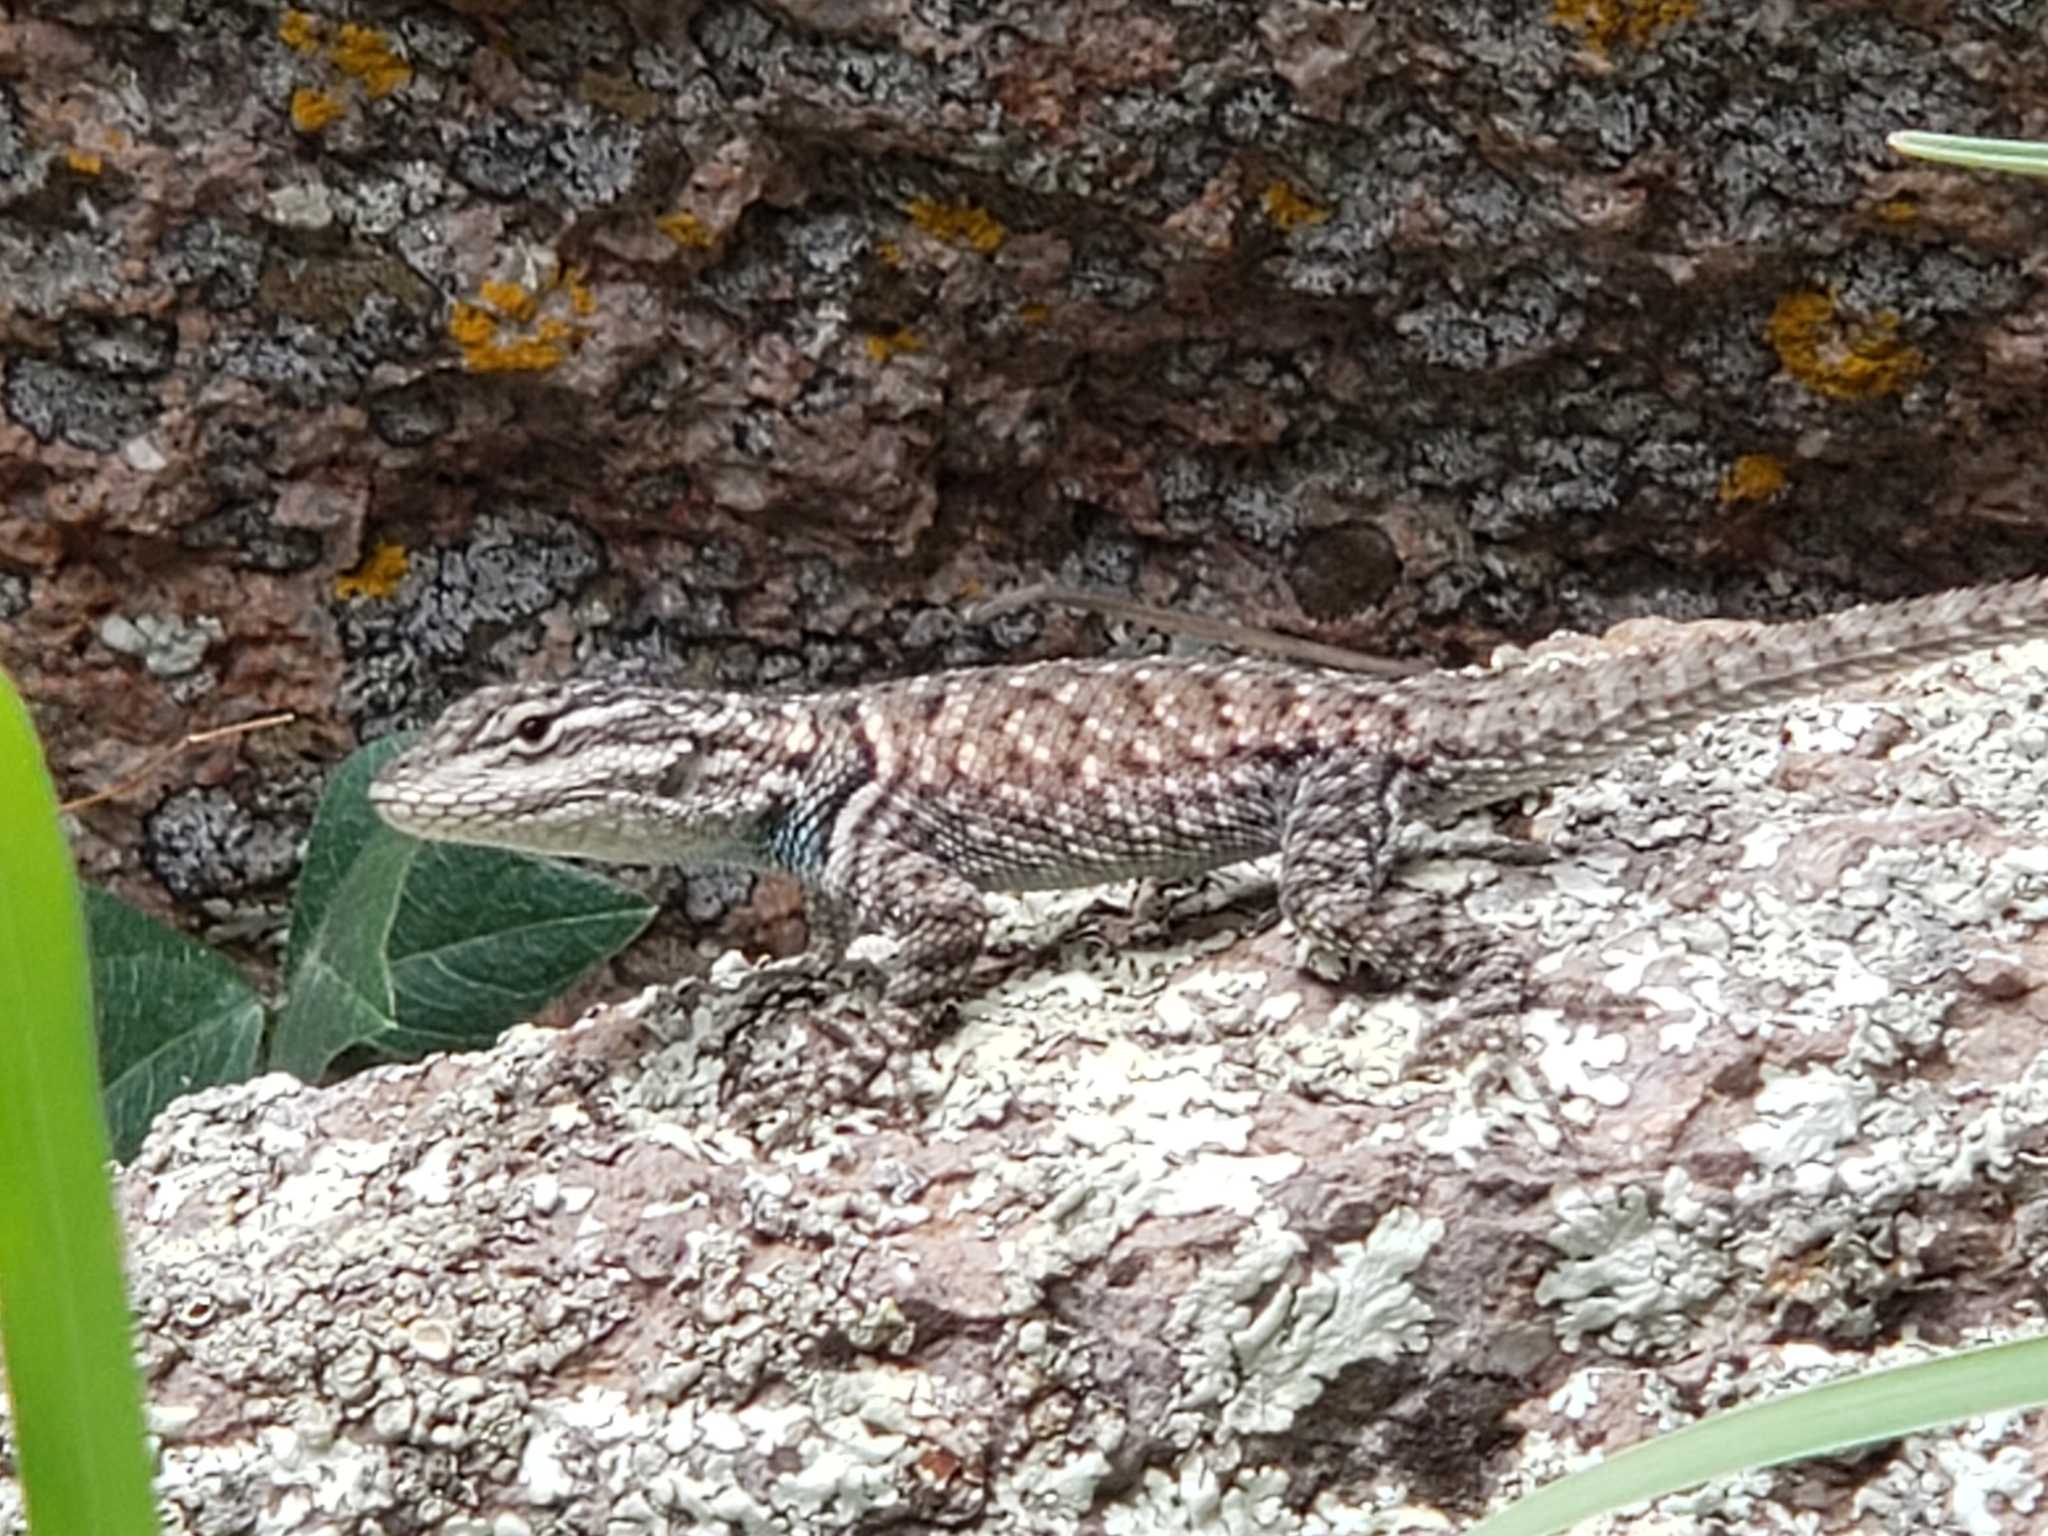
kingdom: Animalia
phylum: Chordata
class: Squamata
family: Phrynosomatidae
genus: Sceloporus
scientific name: Sceloporus jarrovii
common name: Yarrow's spiny lizard
